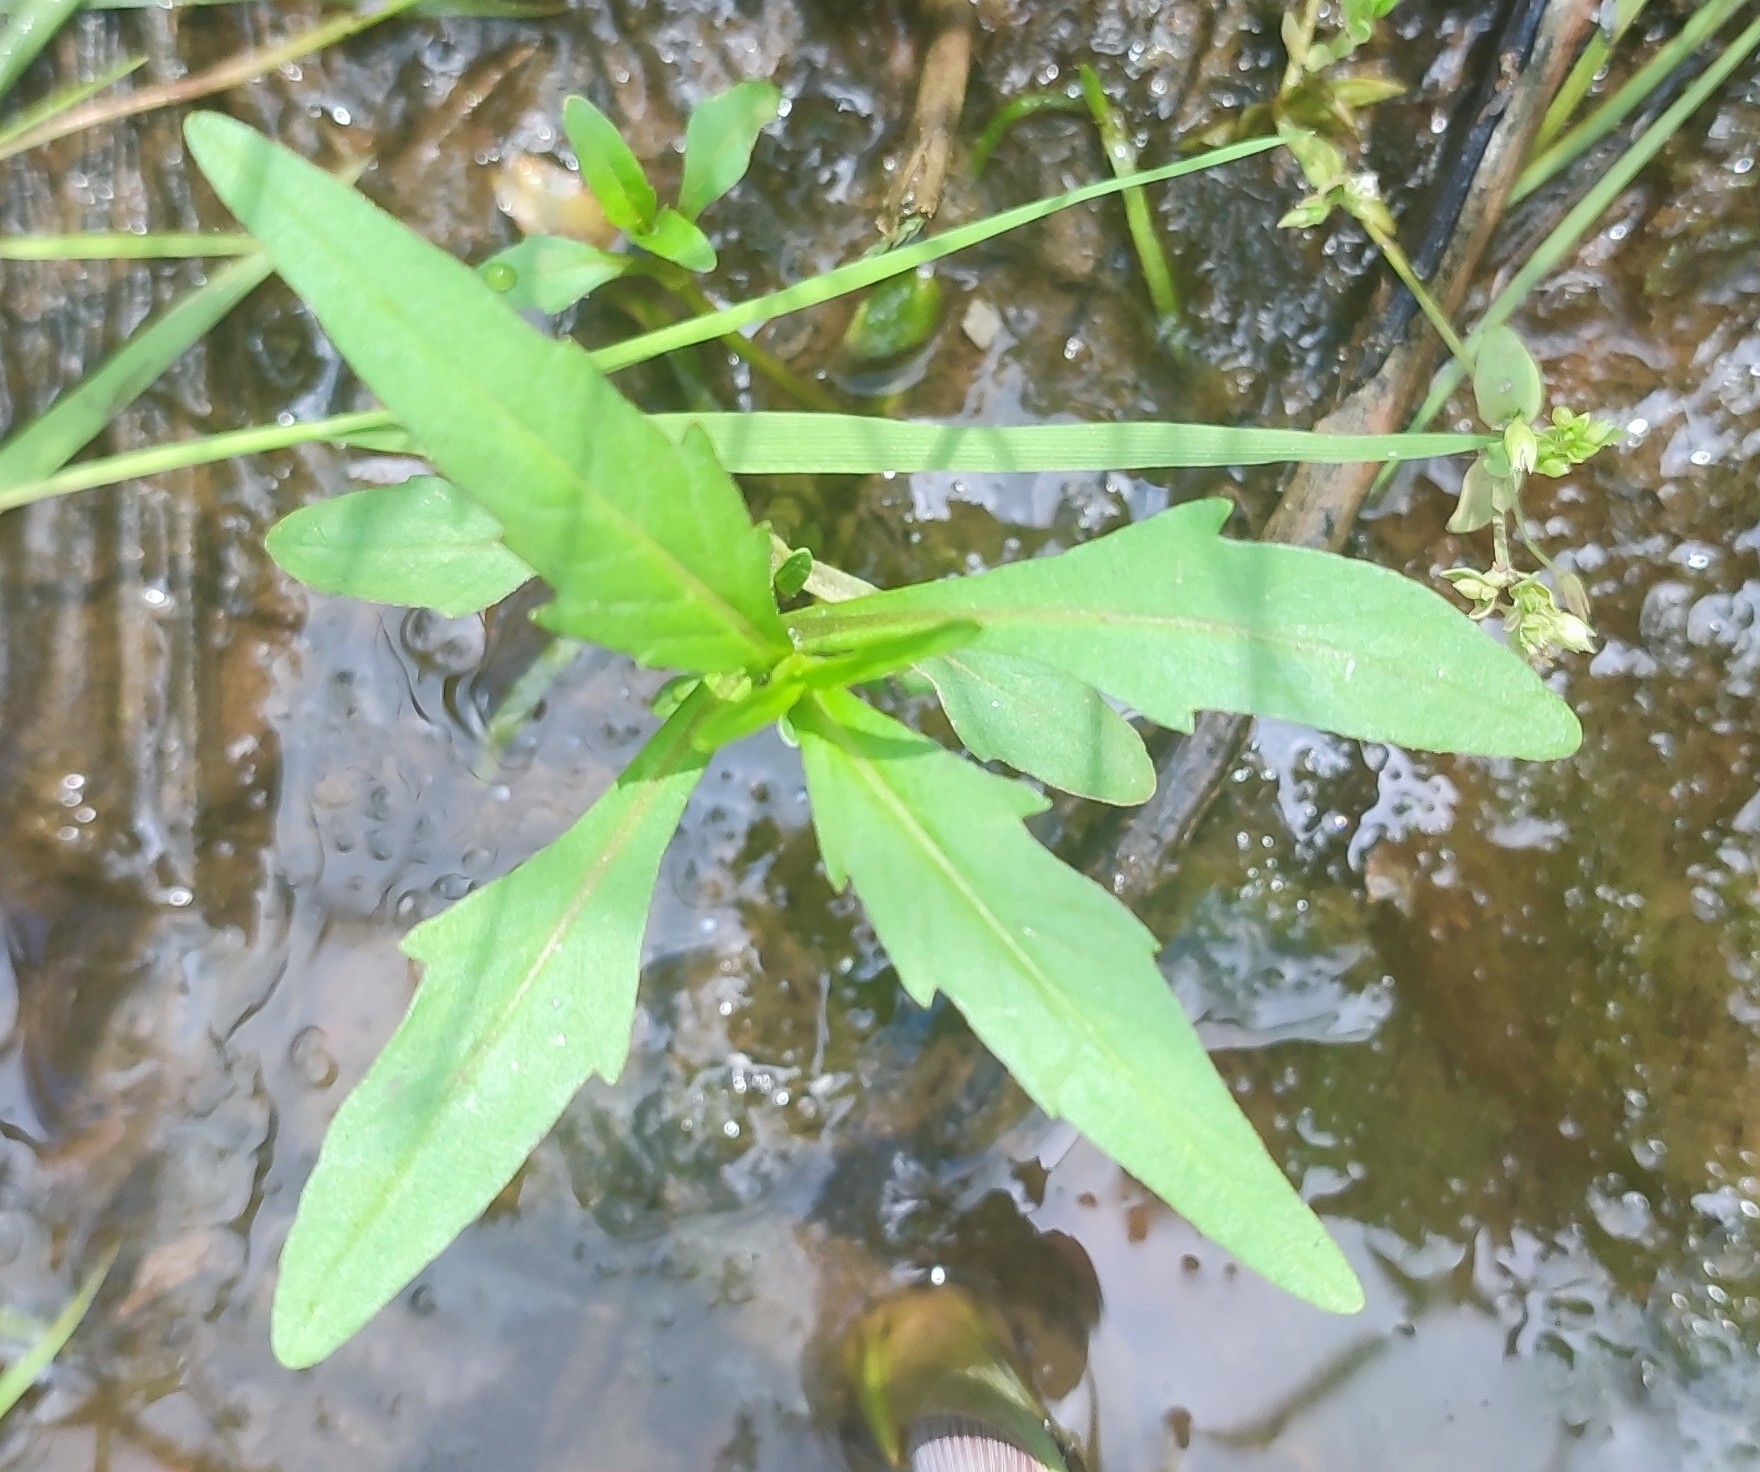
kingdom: Plantae
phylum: Tracheophyta
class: Magnoliopsida
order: Asterales
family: Asteraceae
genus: Bidens
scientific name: Bidens cernua
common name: Nodding bur-marigold
